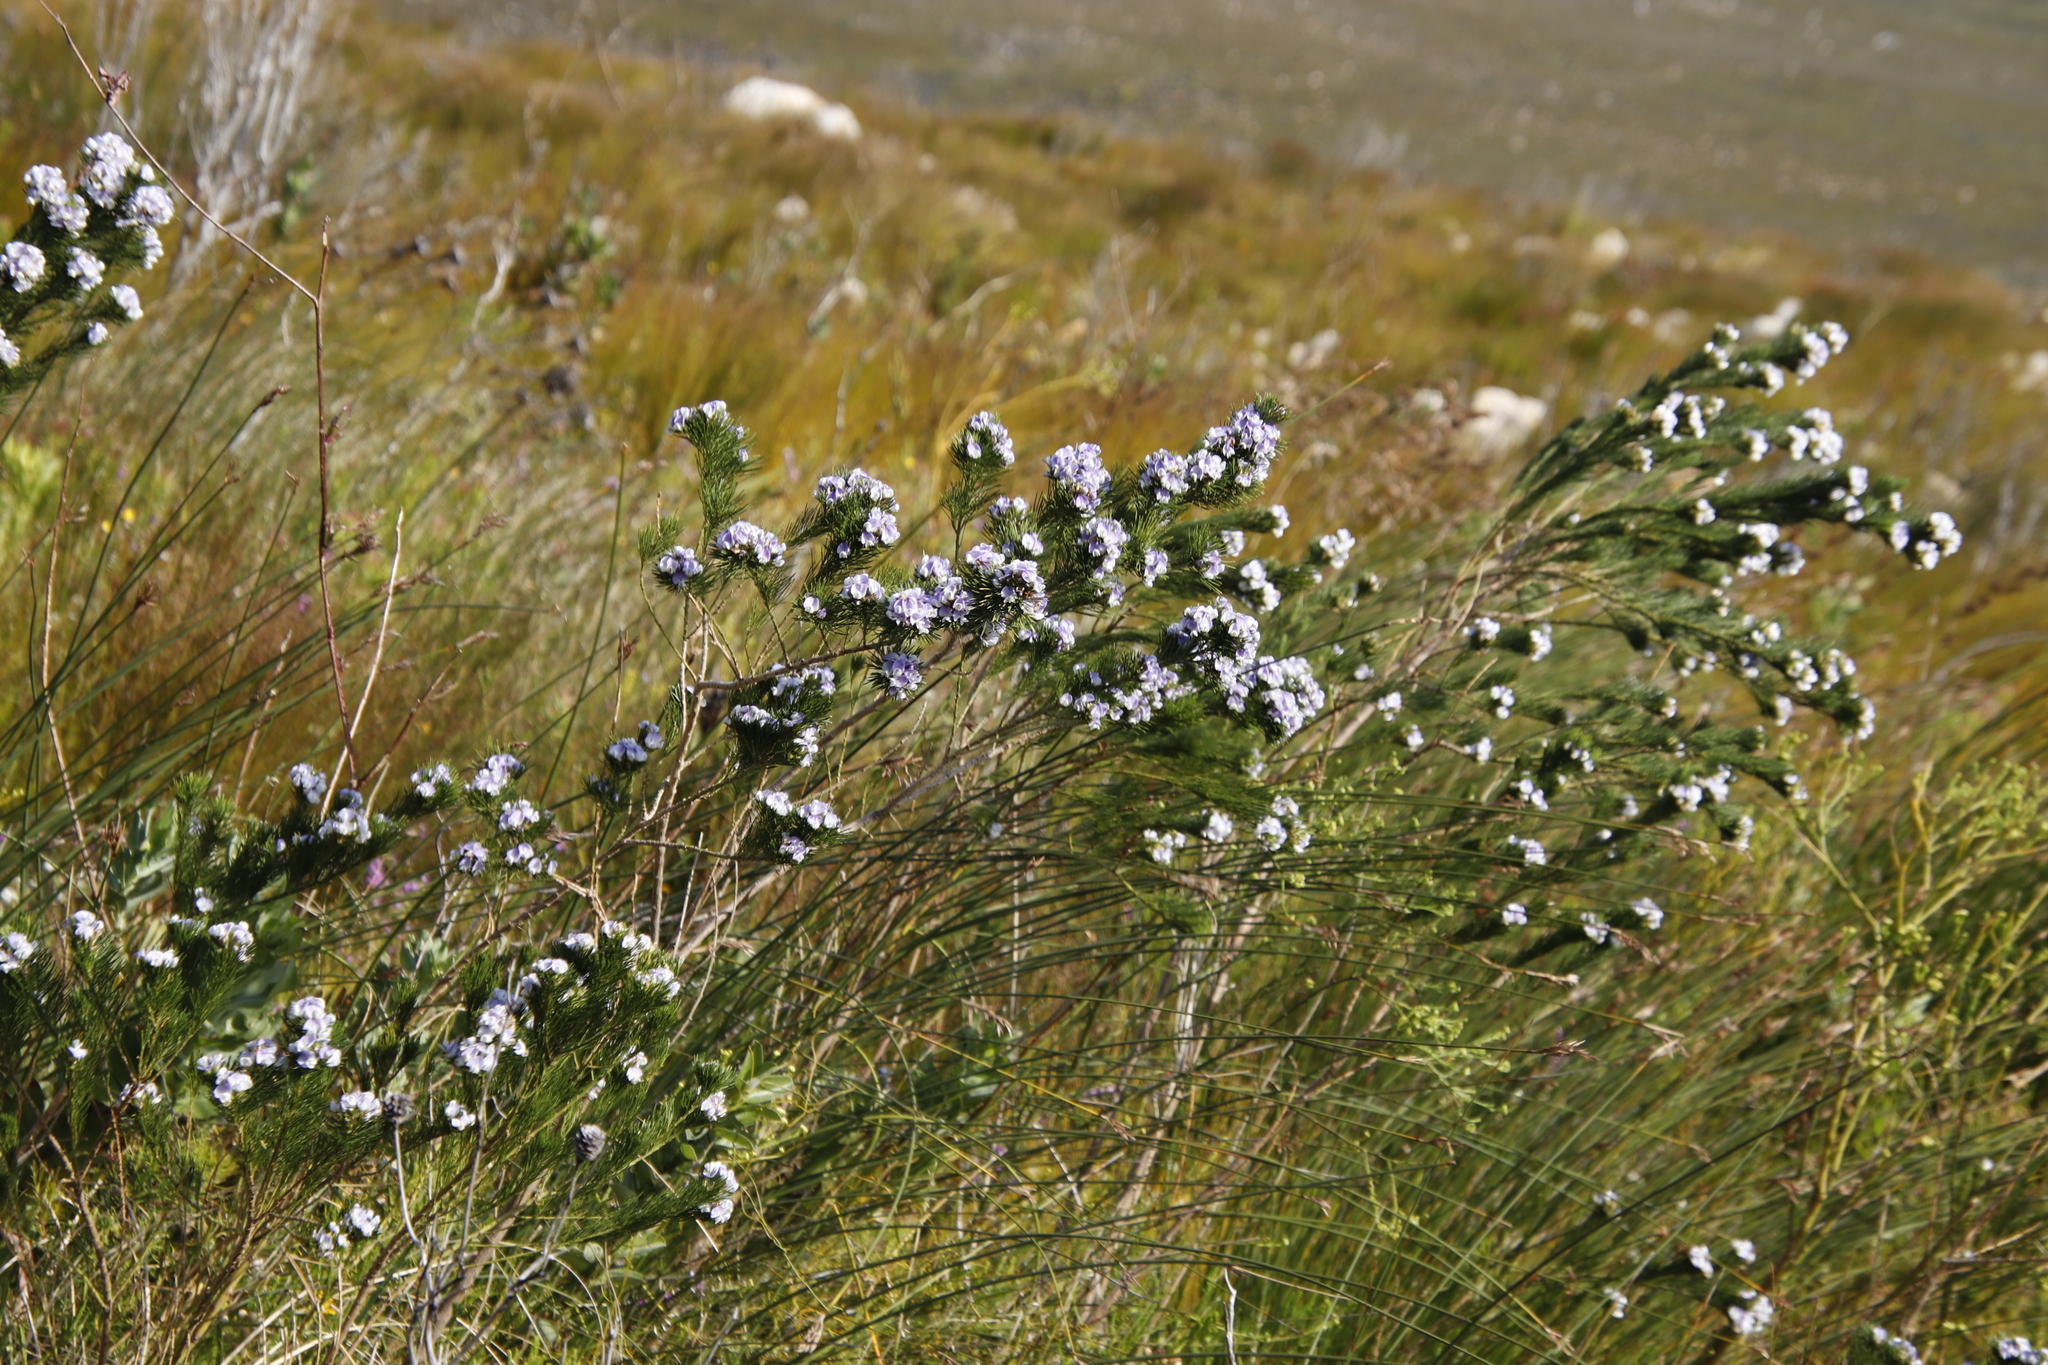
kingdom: Plantae
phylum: Tracheophyta
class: Magnoliopsida
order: Fabales
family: Fabaceae
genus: Psoralea
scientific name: Psoralea ivumba
